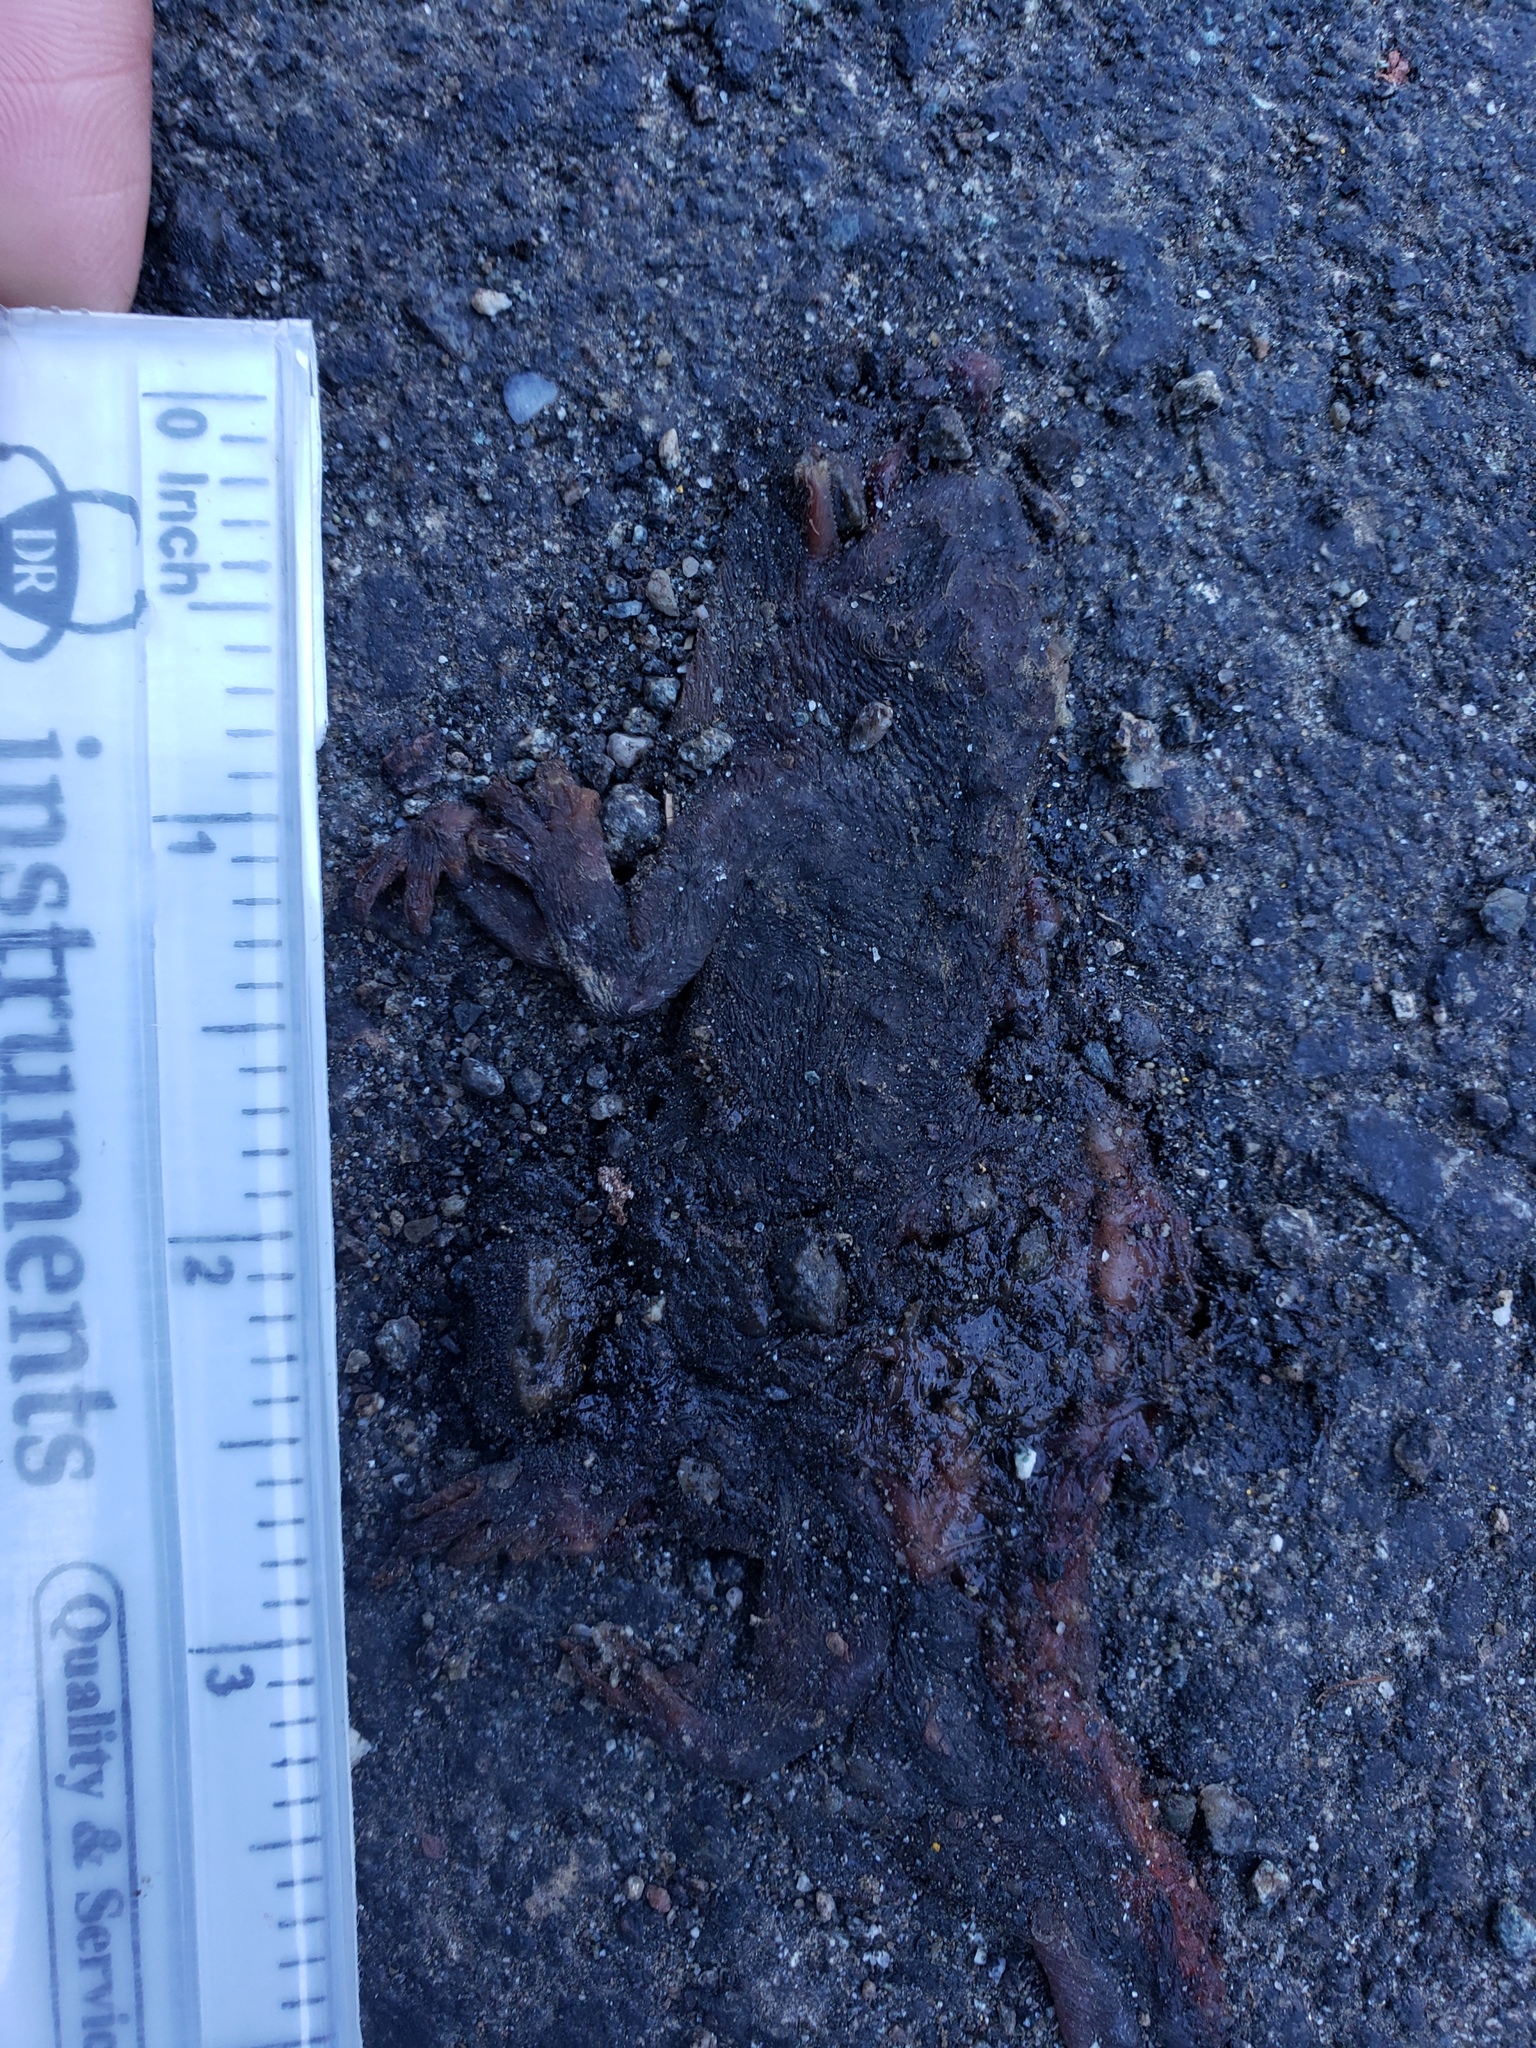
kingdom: Animalia
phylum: Chordata
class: Amphibia
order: Caudata
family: Salamandridae
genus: Taricha
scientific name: Taricha
